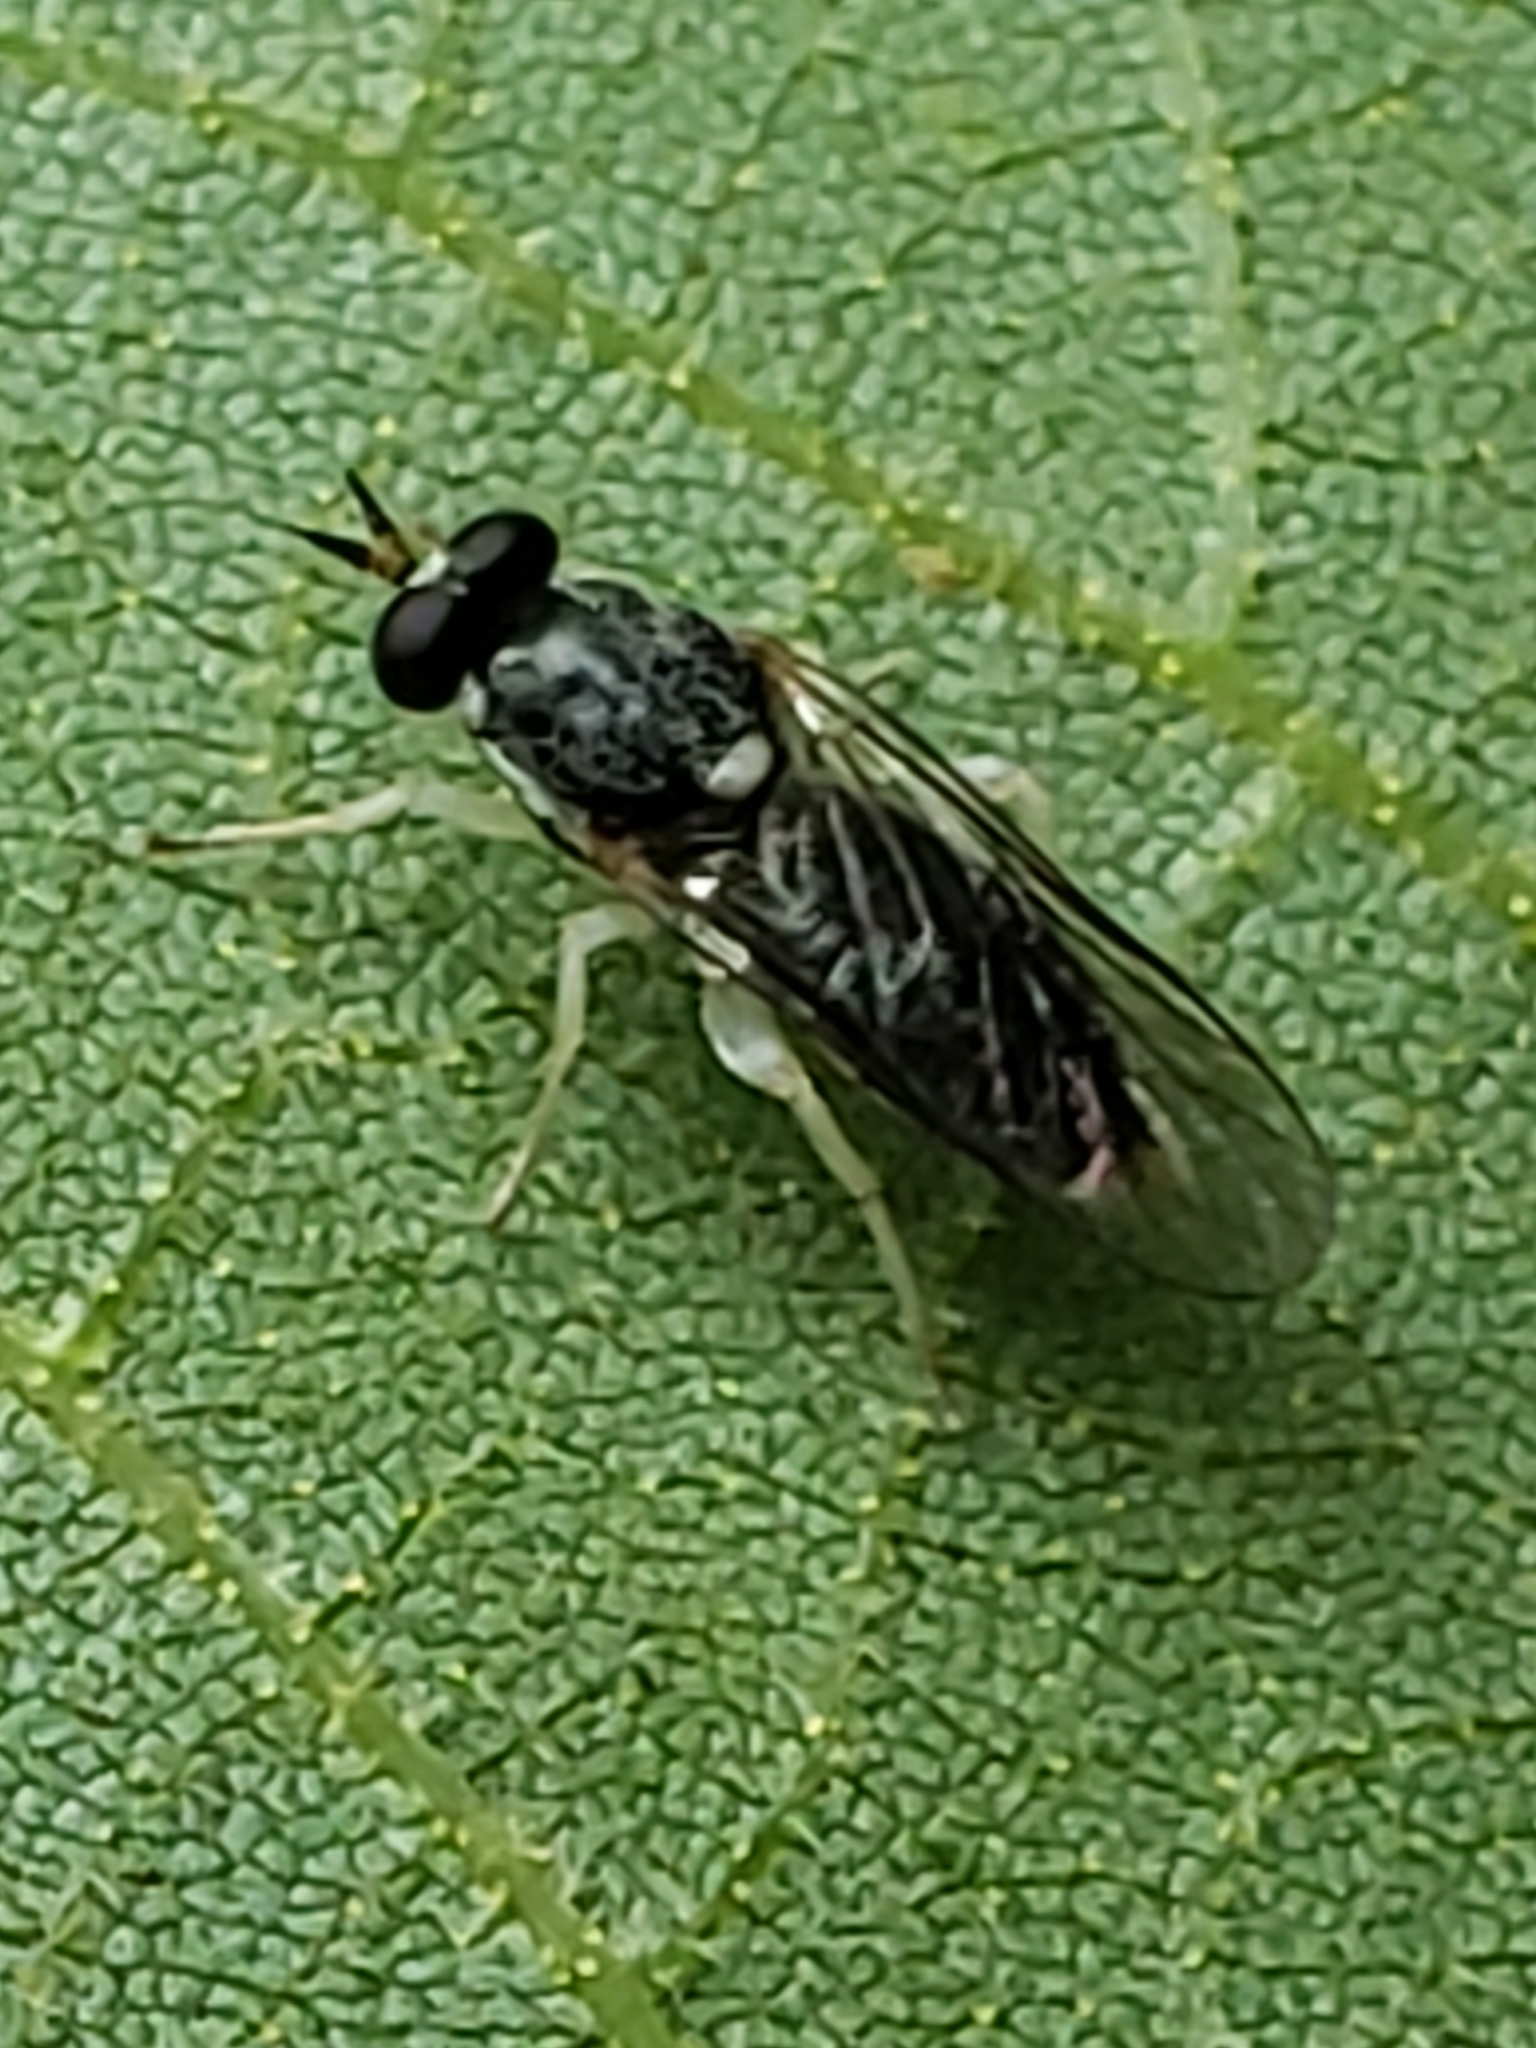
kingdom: Animalia
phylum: Arthropoda
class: Insecta
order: Diptera
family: Xylomyidae
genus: Solva
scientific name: Solva crepuscula
